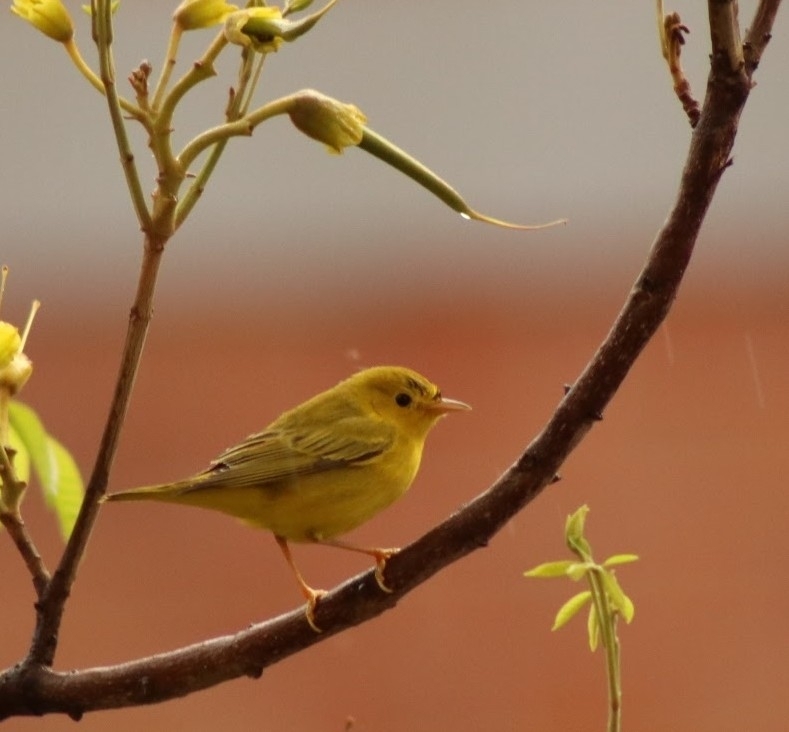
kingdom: Animalia
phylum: Chordata
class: Aves
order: Passeriformes
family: Parulidae
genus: Setophaga
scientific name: Setophaga petechia
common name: Yellow warbler
